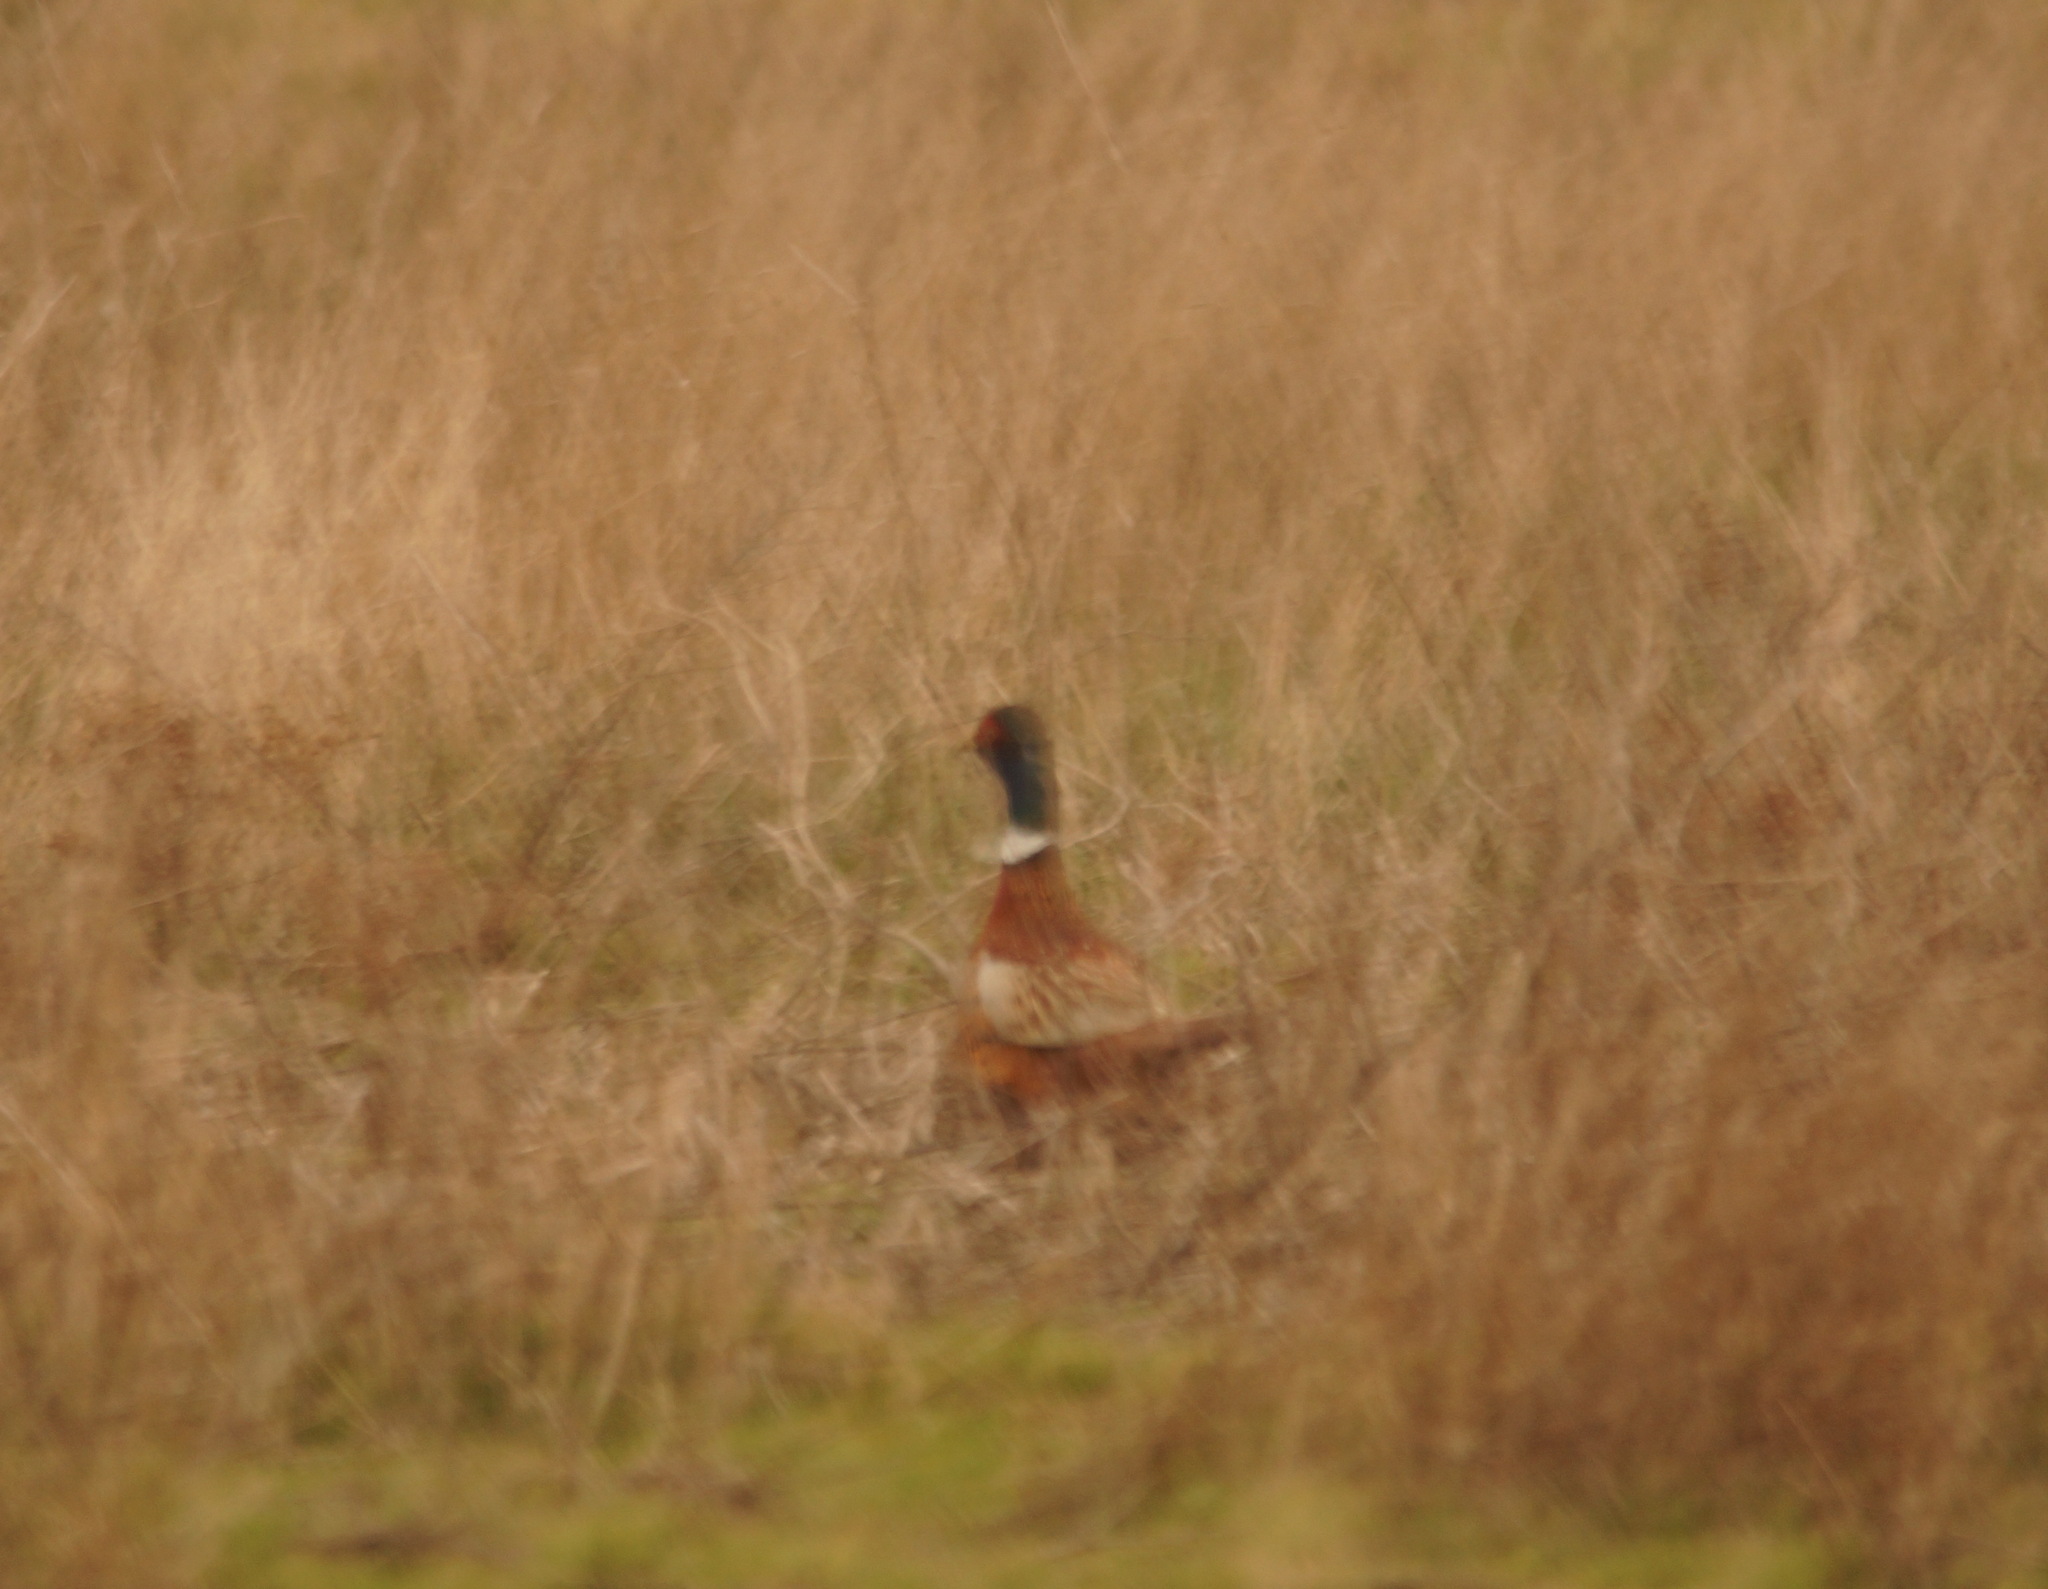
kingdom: Animalia
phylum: Chordata
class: Aves
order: Galliformes
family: Phasianidae
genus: Phasianus
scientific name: Phasianus colchicus
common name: Common pheasant
